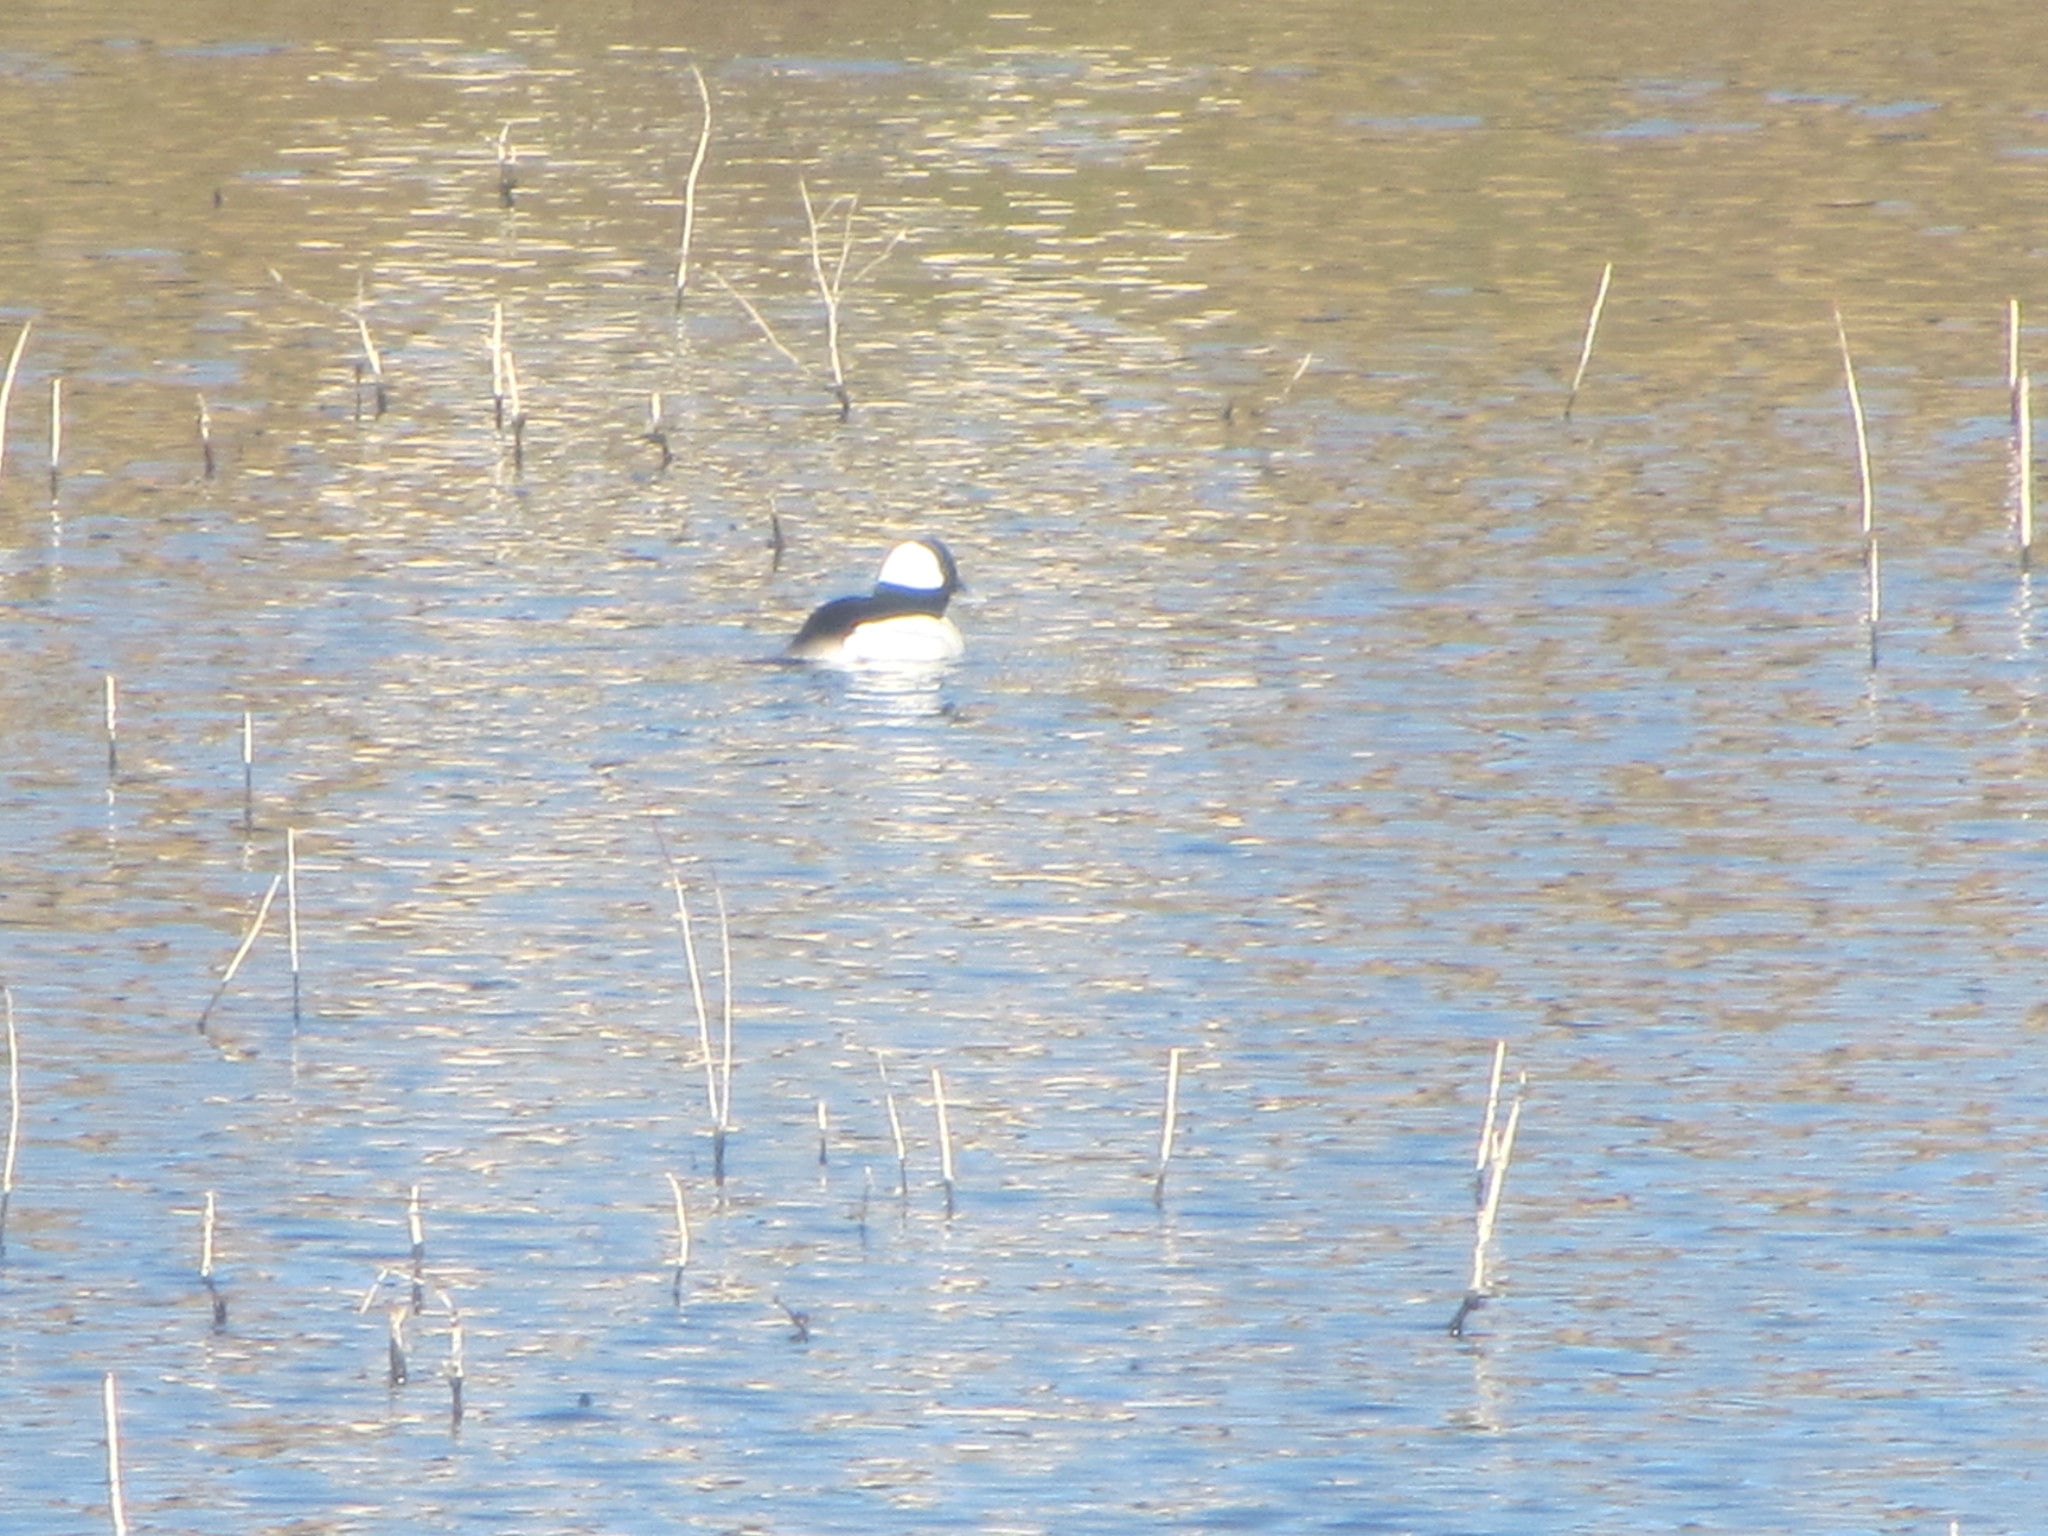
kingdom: Animalia
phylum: Chordata
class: Aves
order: Anseriformes
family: Anatidae
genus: Bucephala
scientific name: Bucephala albeola
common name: Bufflehead
